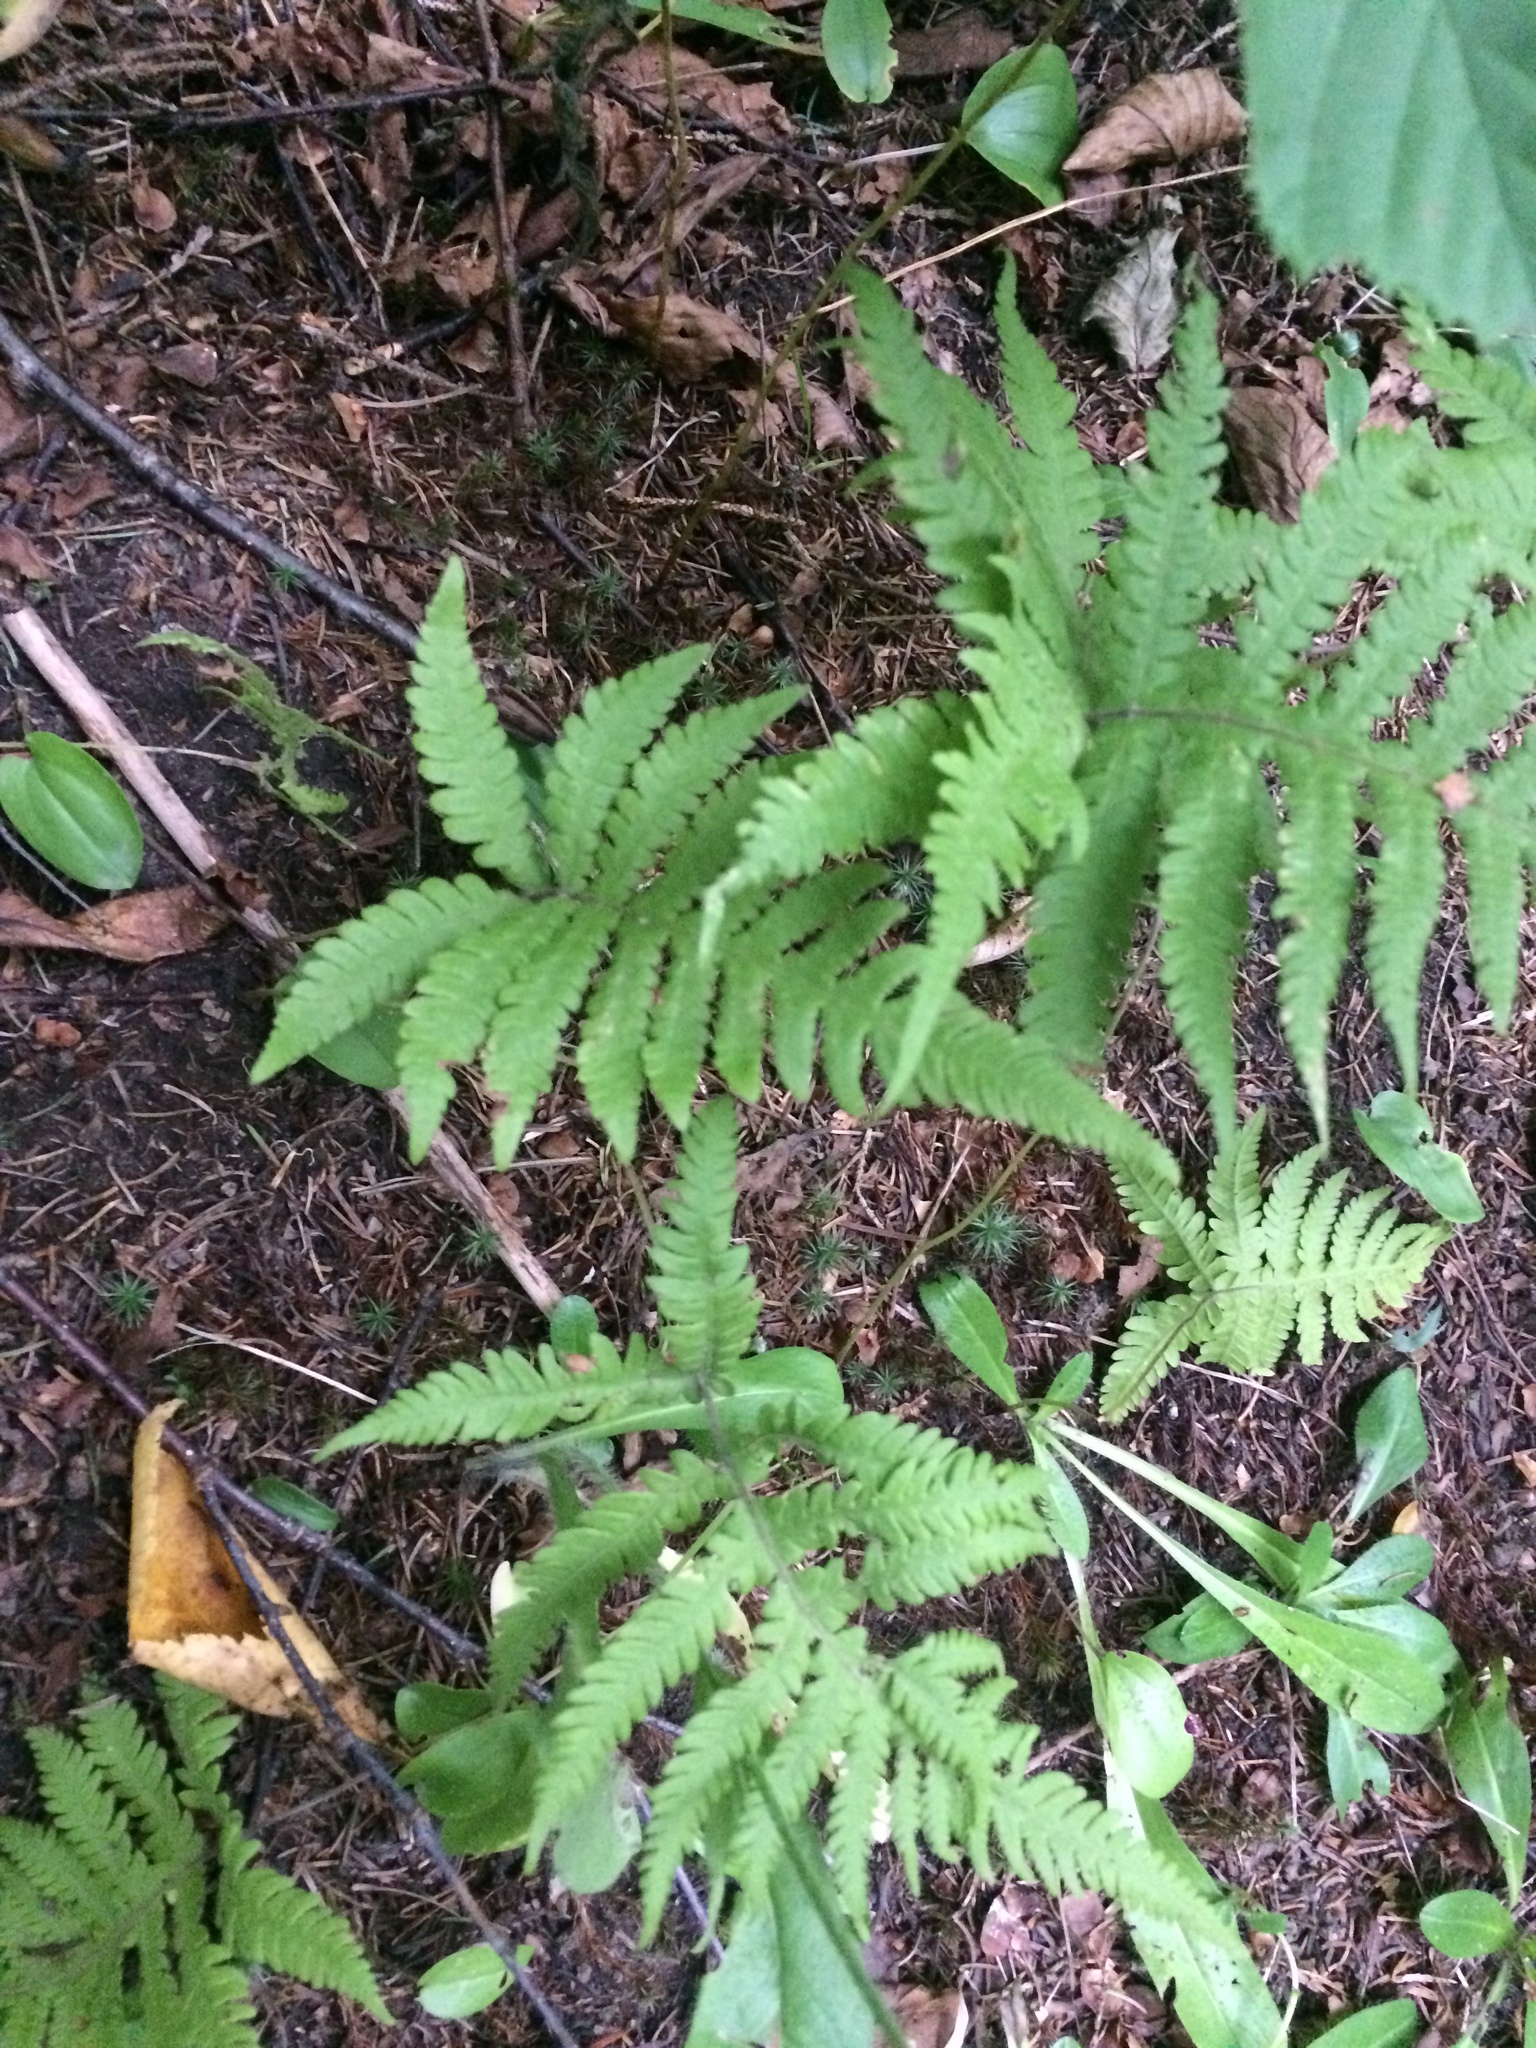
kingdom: Plantae
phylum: Tracheophyta
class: Polypodiopsida
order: Polypodiales
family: Thelypteridaceae
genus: Phegopteris
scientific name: Phegopteris connectilis
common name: Beech fern
